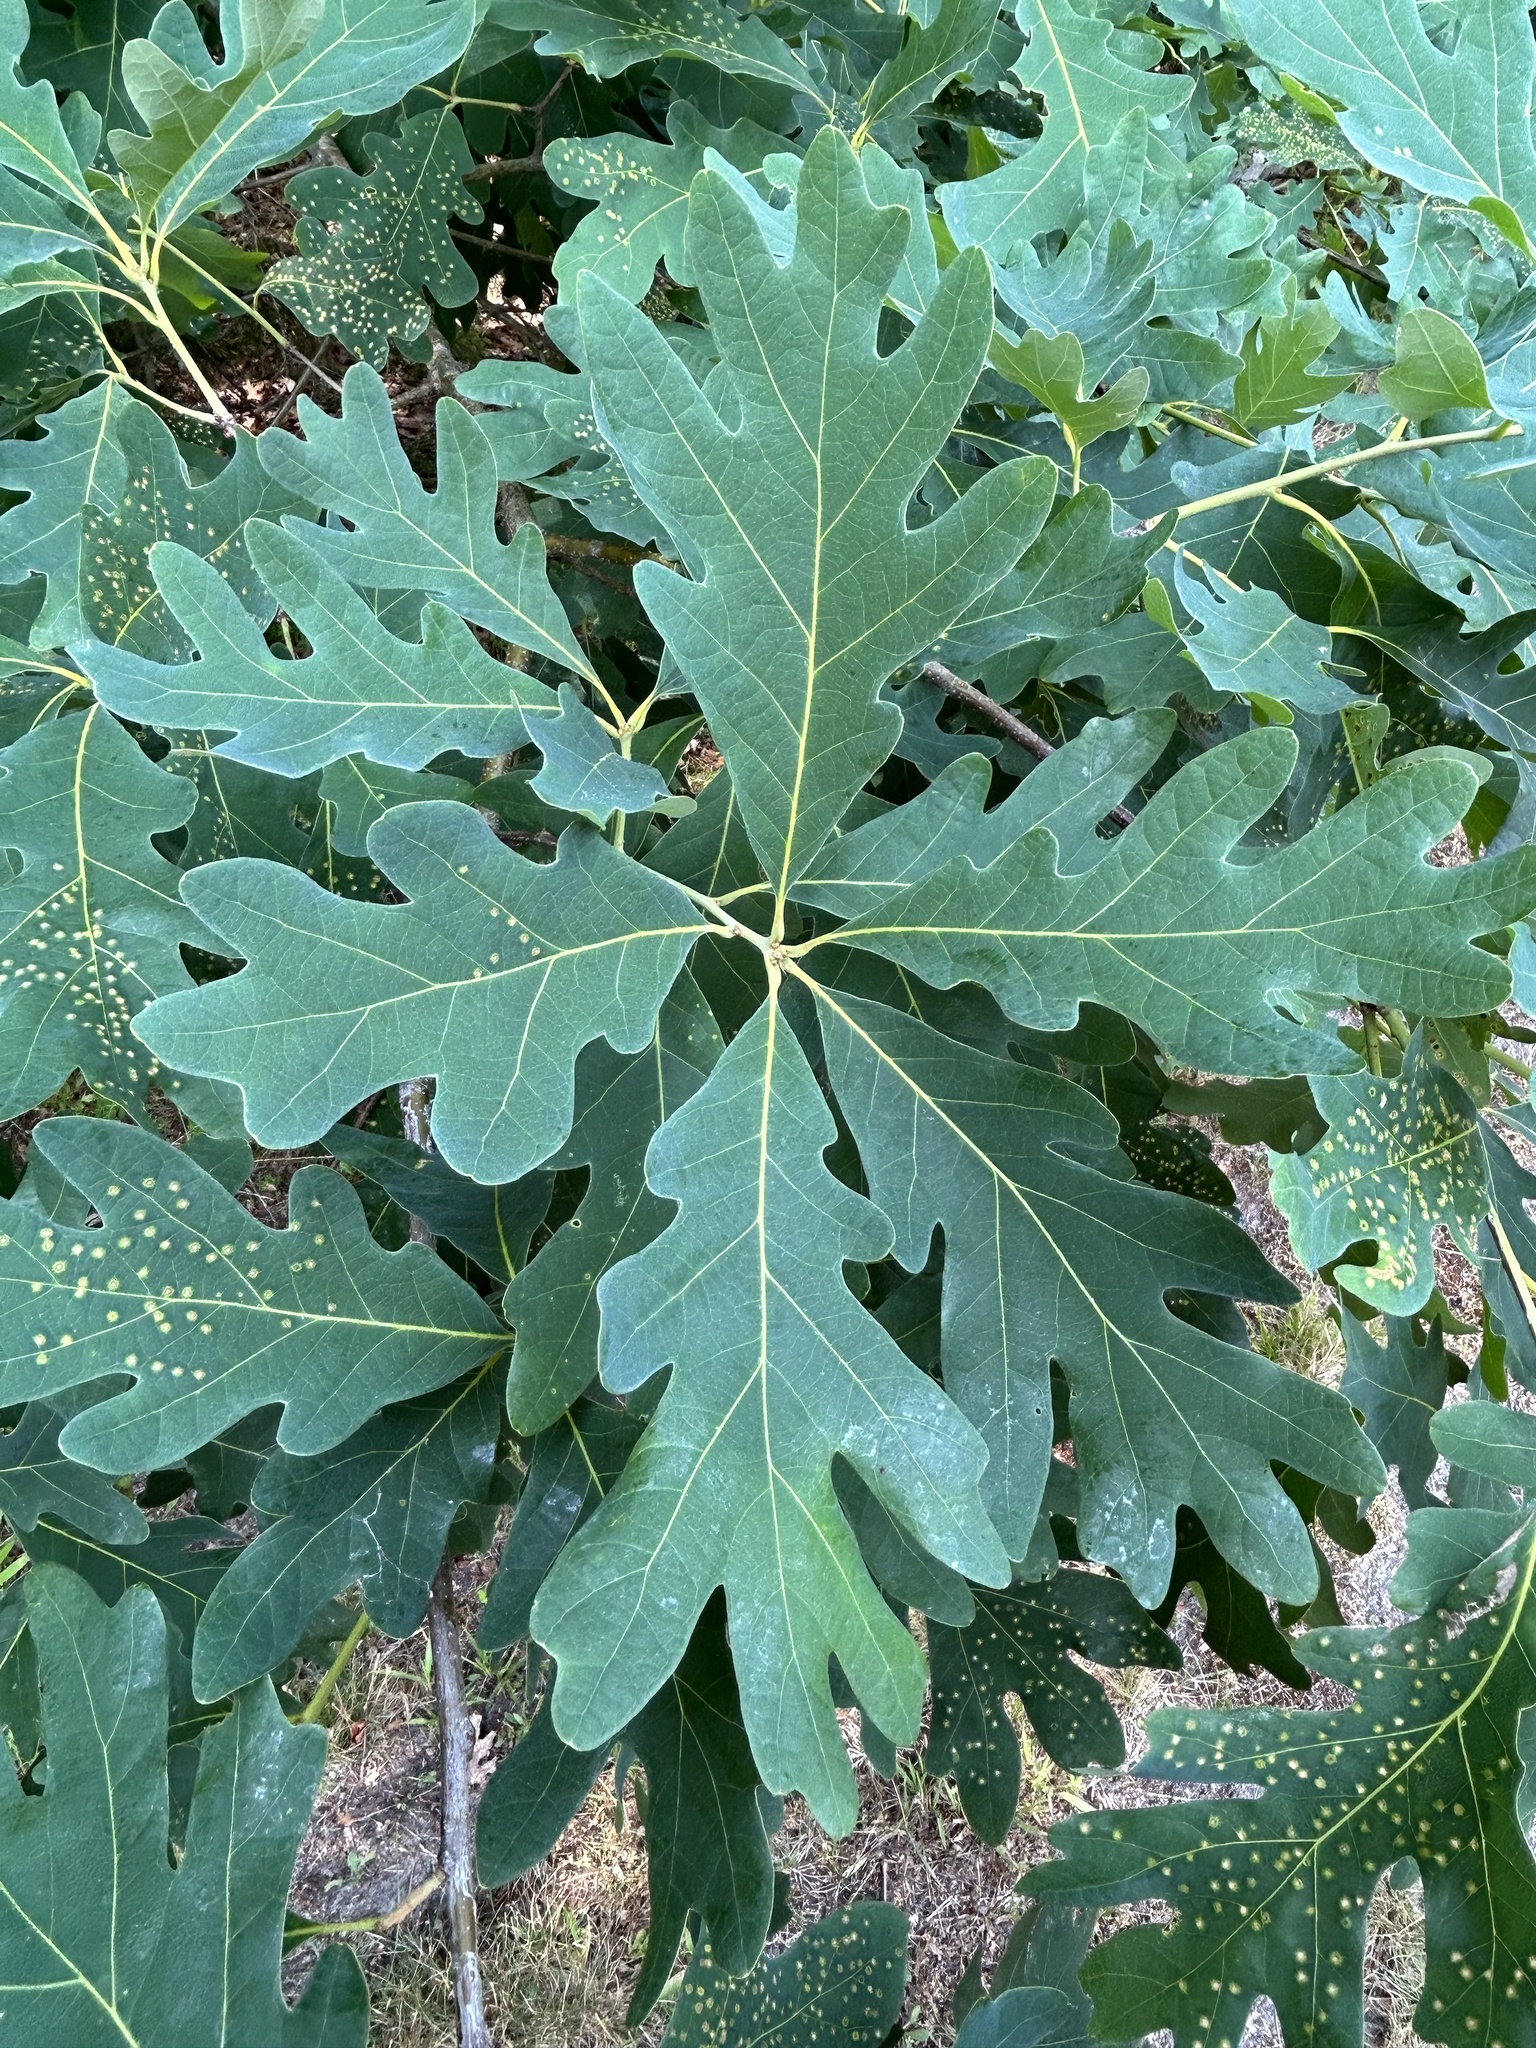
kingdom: Plantae
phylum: Tracheophyta
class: Magnoliopsida
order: Fagales
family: Fagaceae
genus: Quercus
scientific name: Quercus alba
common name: White oak
